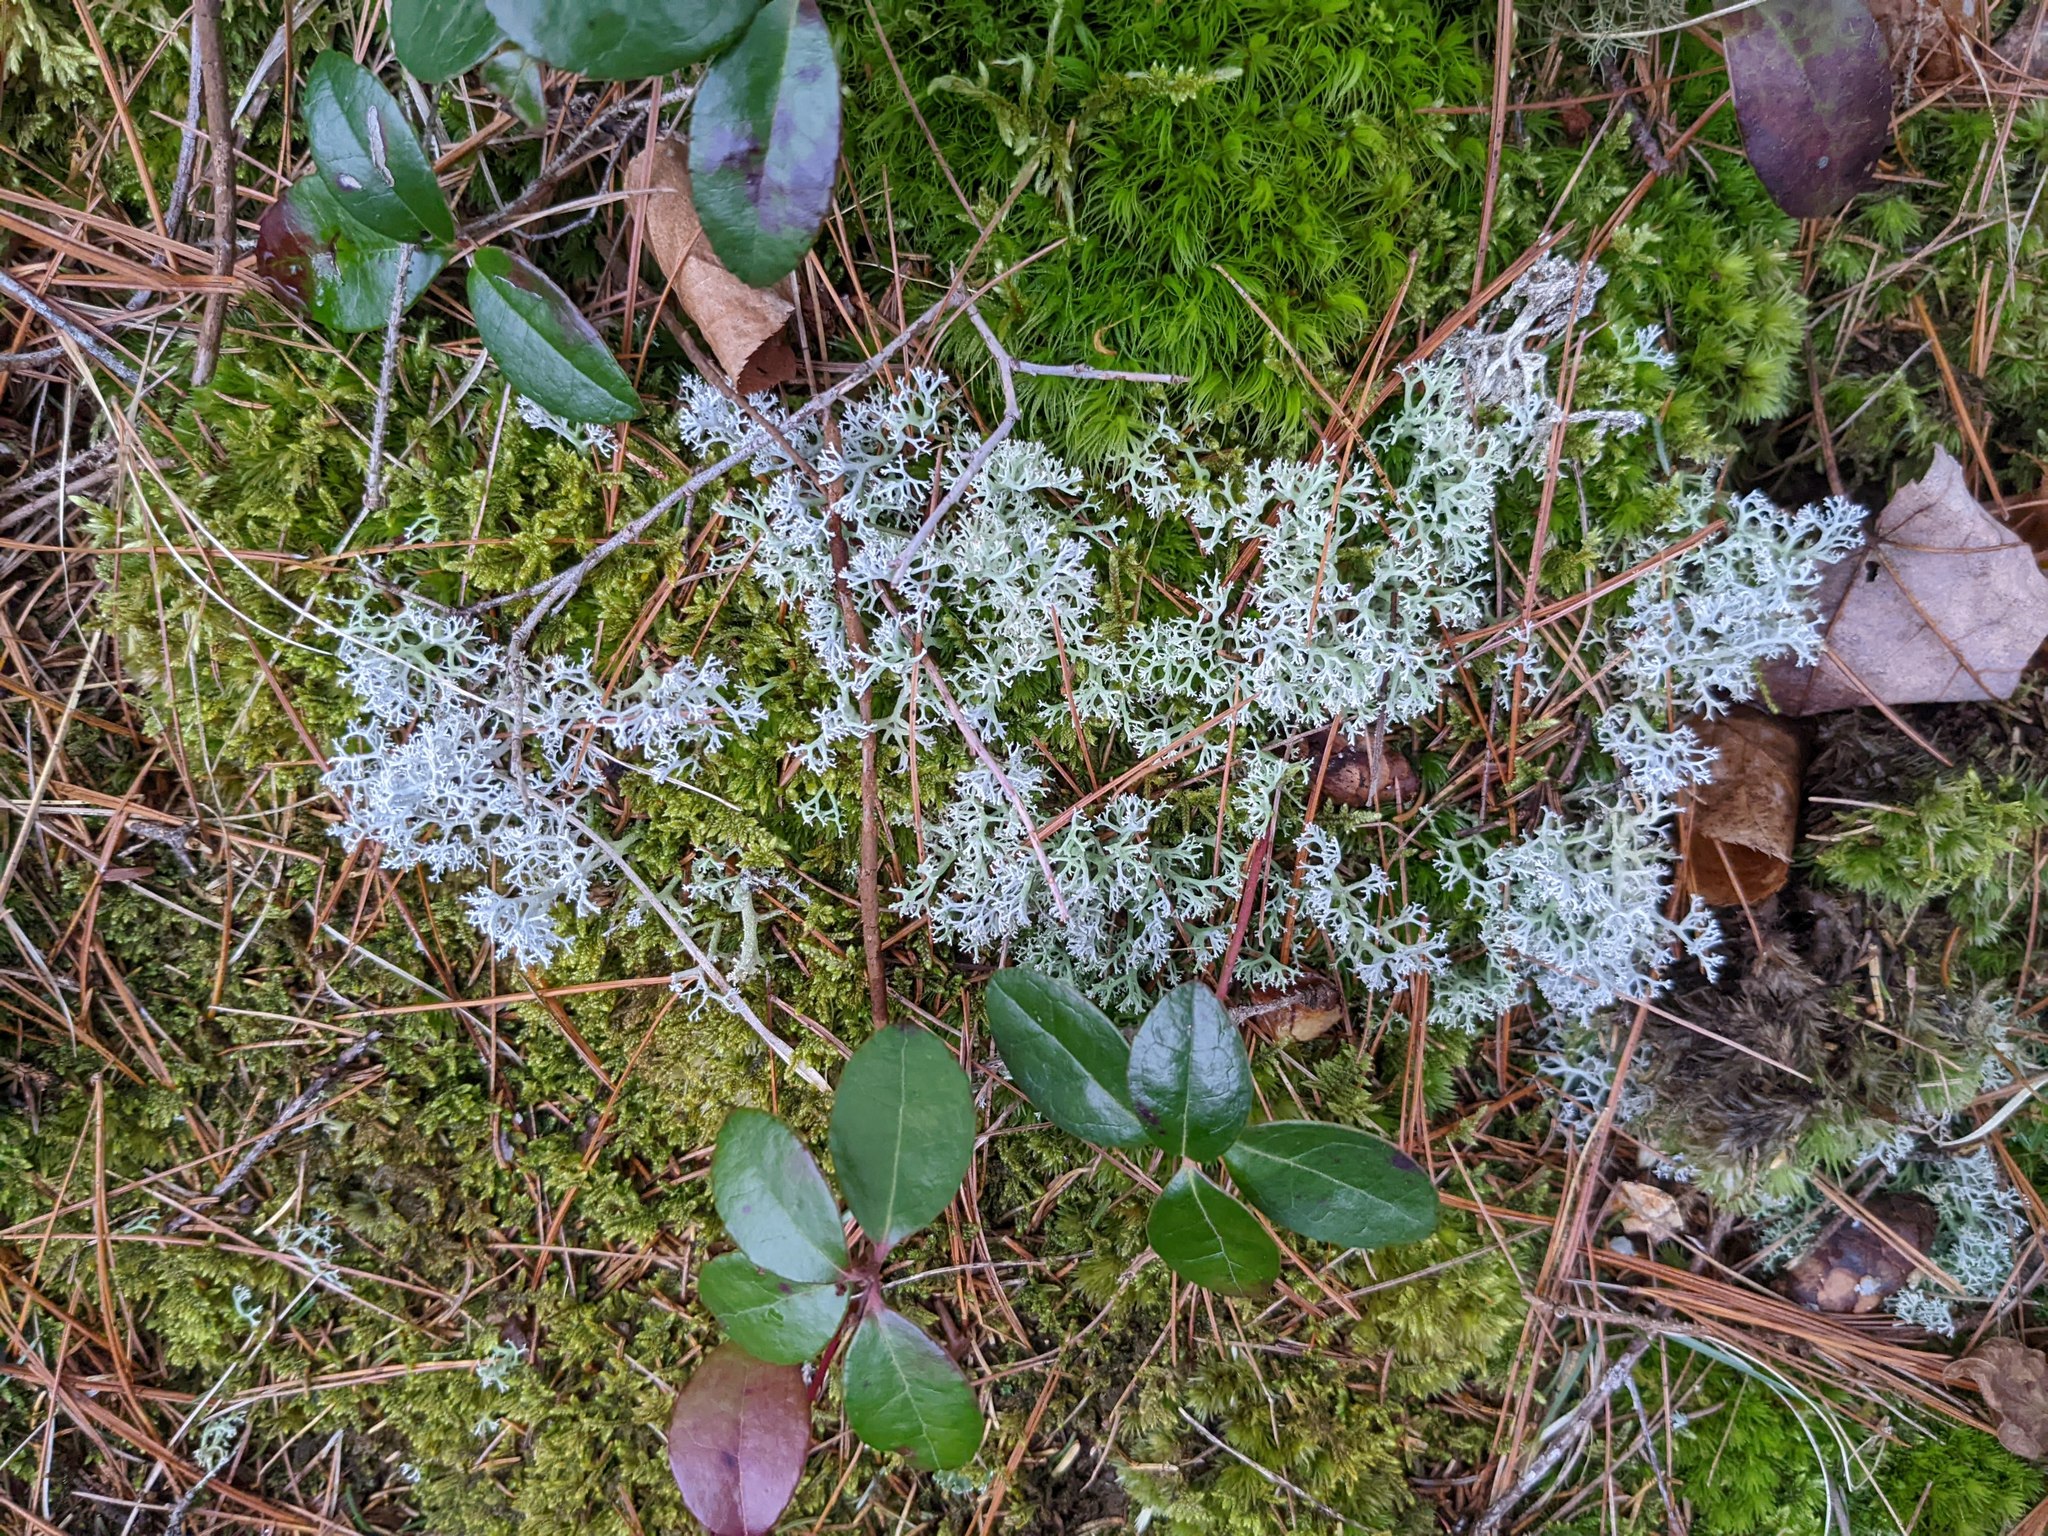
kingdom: Plantae
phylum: Tracheophyta
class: Magnoliopsida
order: Ericales
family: Ericaceae
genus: Gaultheria
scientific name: Gaultheria procumbens
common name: Checkerberry
